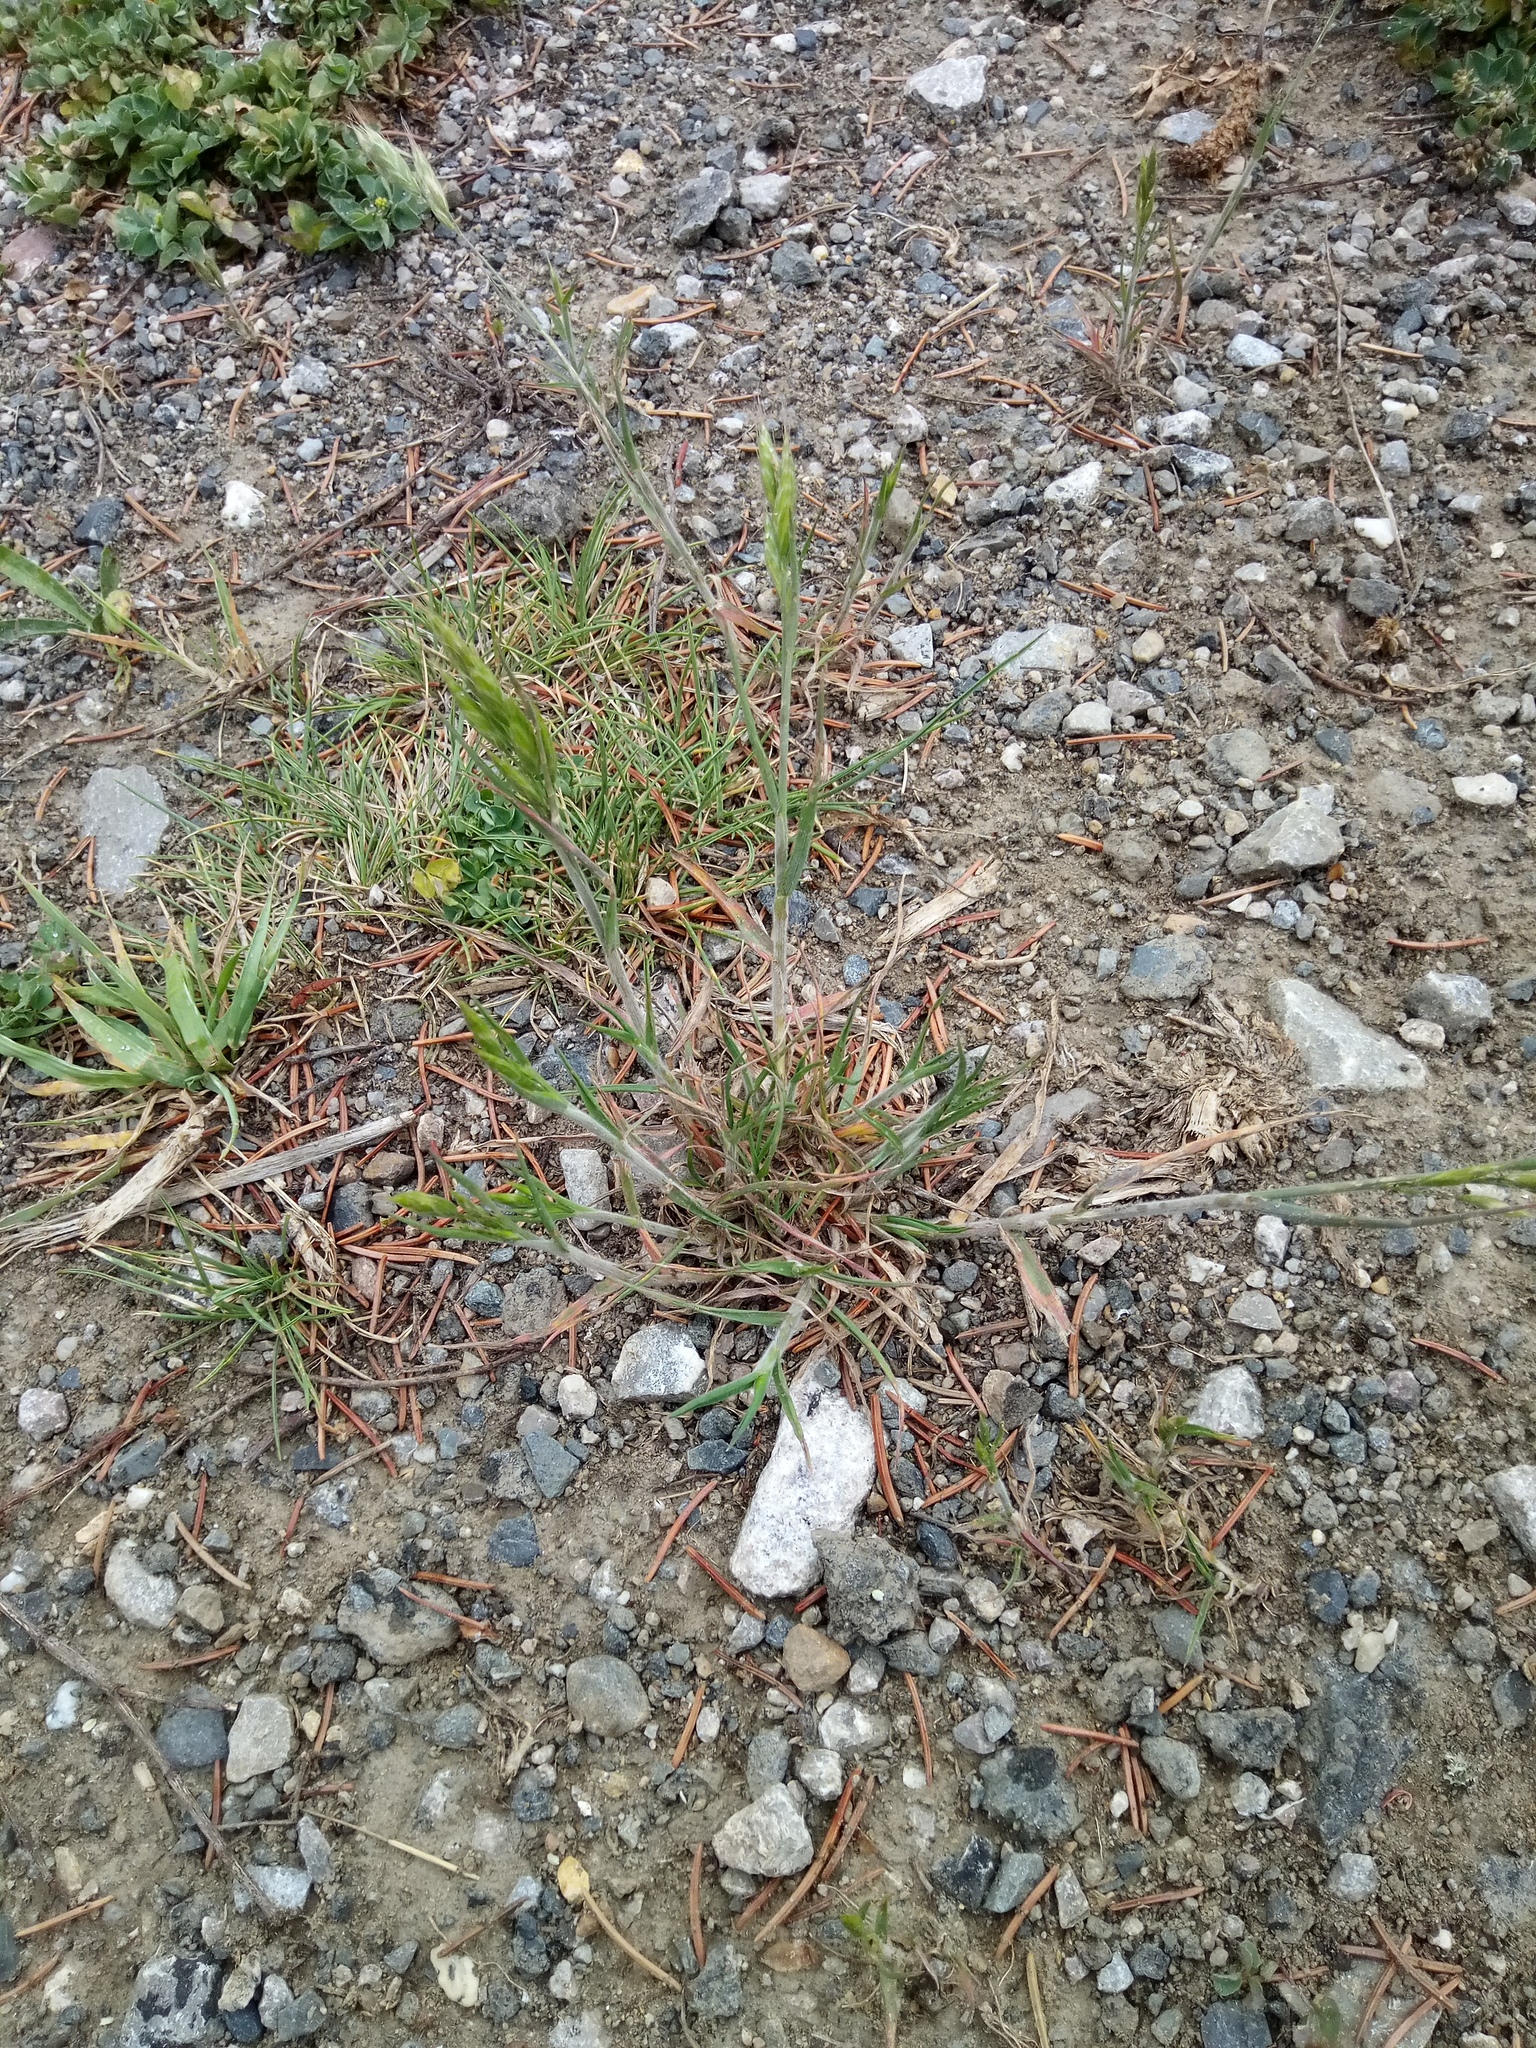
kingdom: Plantae
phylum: Tracheophyta
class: Liliopsida
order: Poales
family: Poaceae
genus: Bromus
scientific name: Bromus hordeaceus
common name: Soft brome
